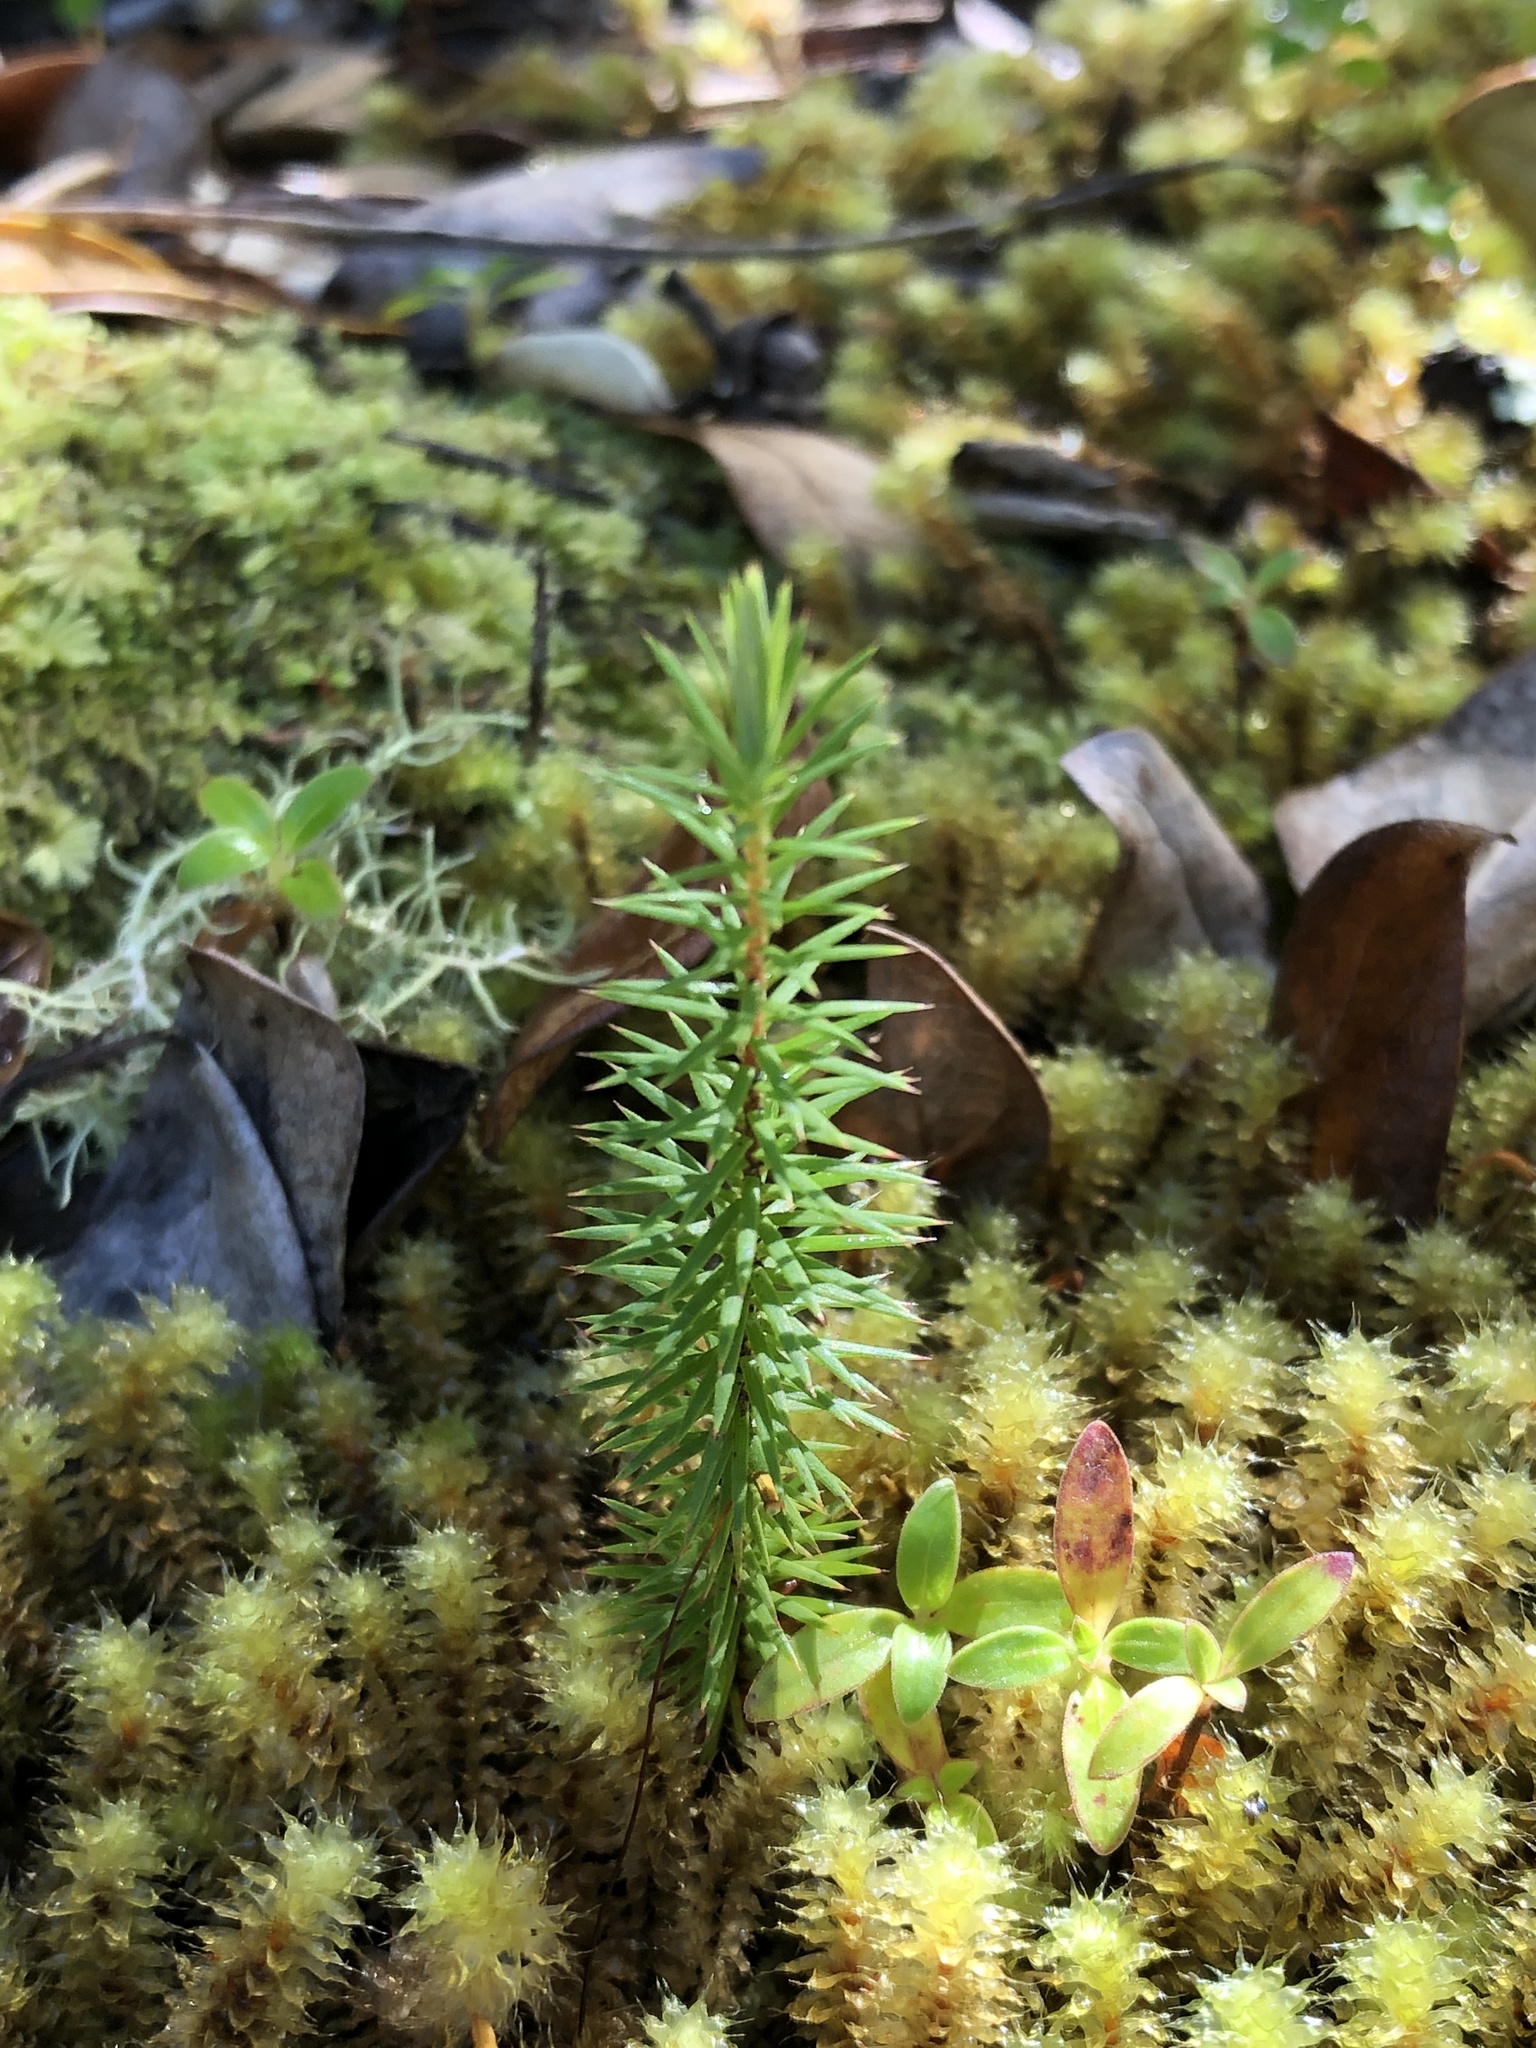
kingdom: Plantae
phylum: Tracheophyta
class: Magnoliopsida
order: Ericales
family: Ericaceae
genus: Leptecophylla
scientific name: Leptecophylla juniperina
